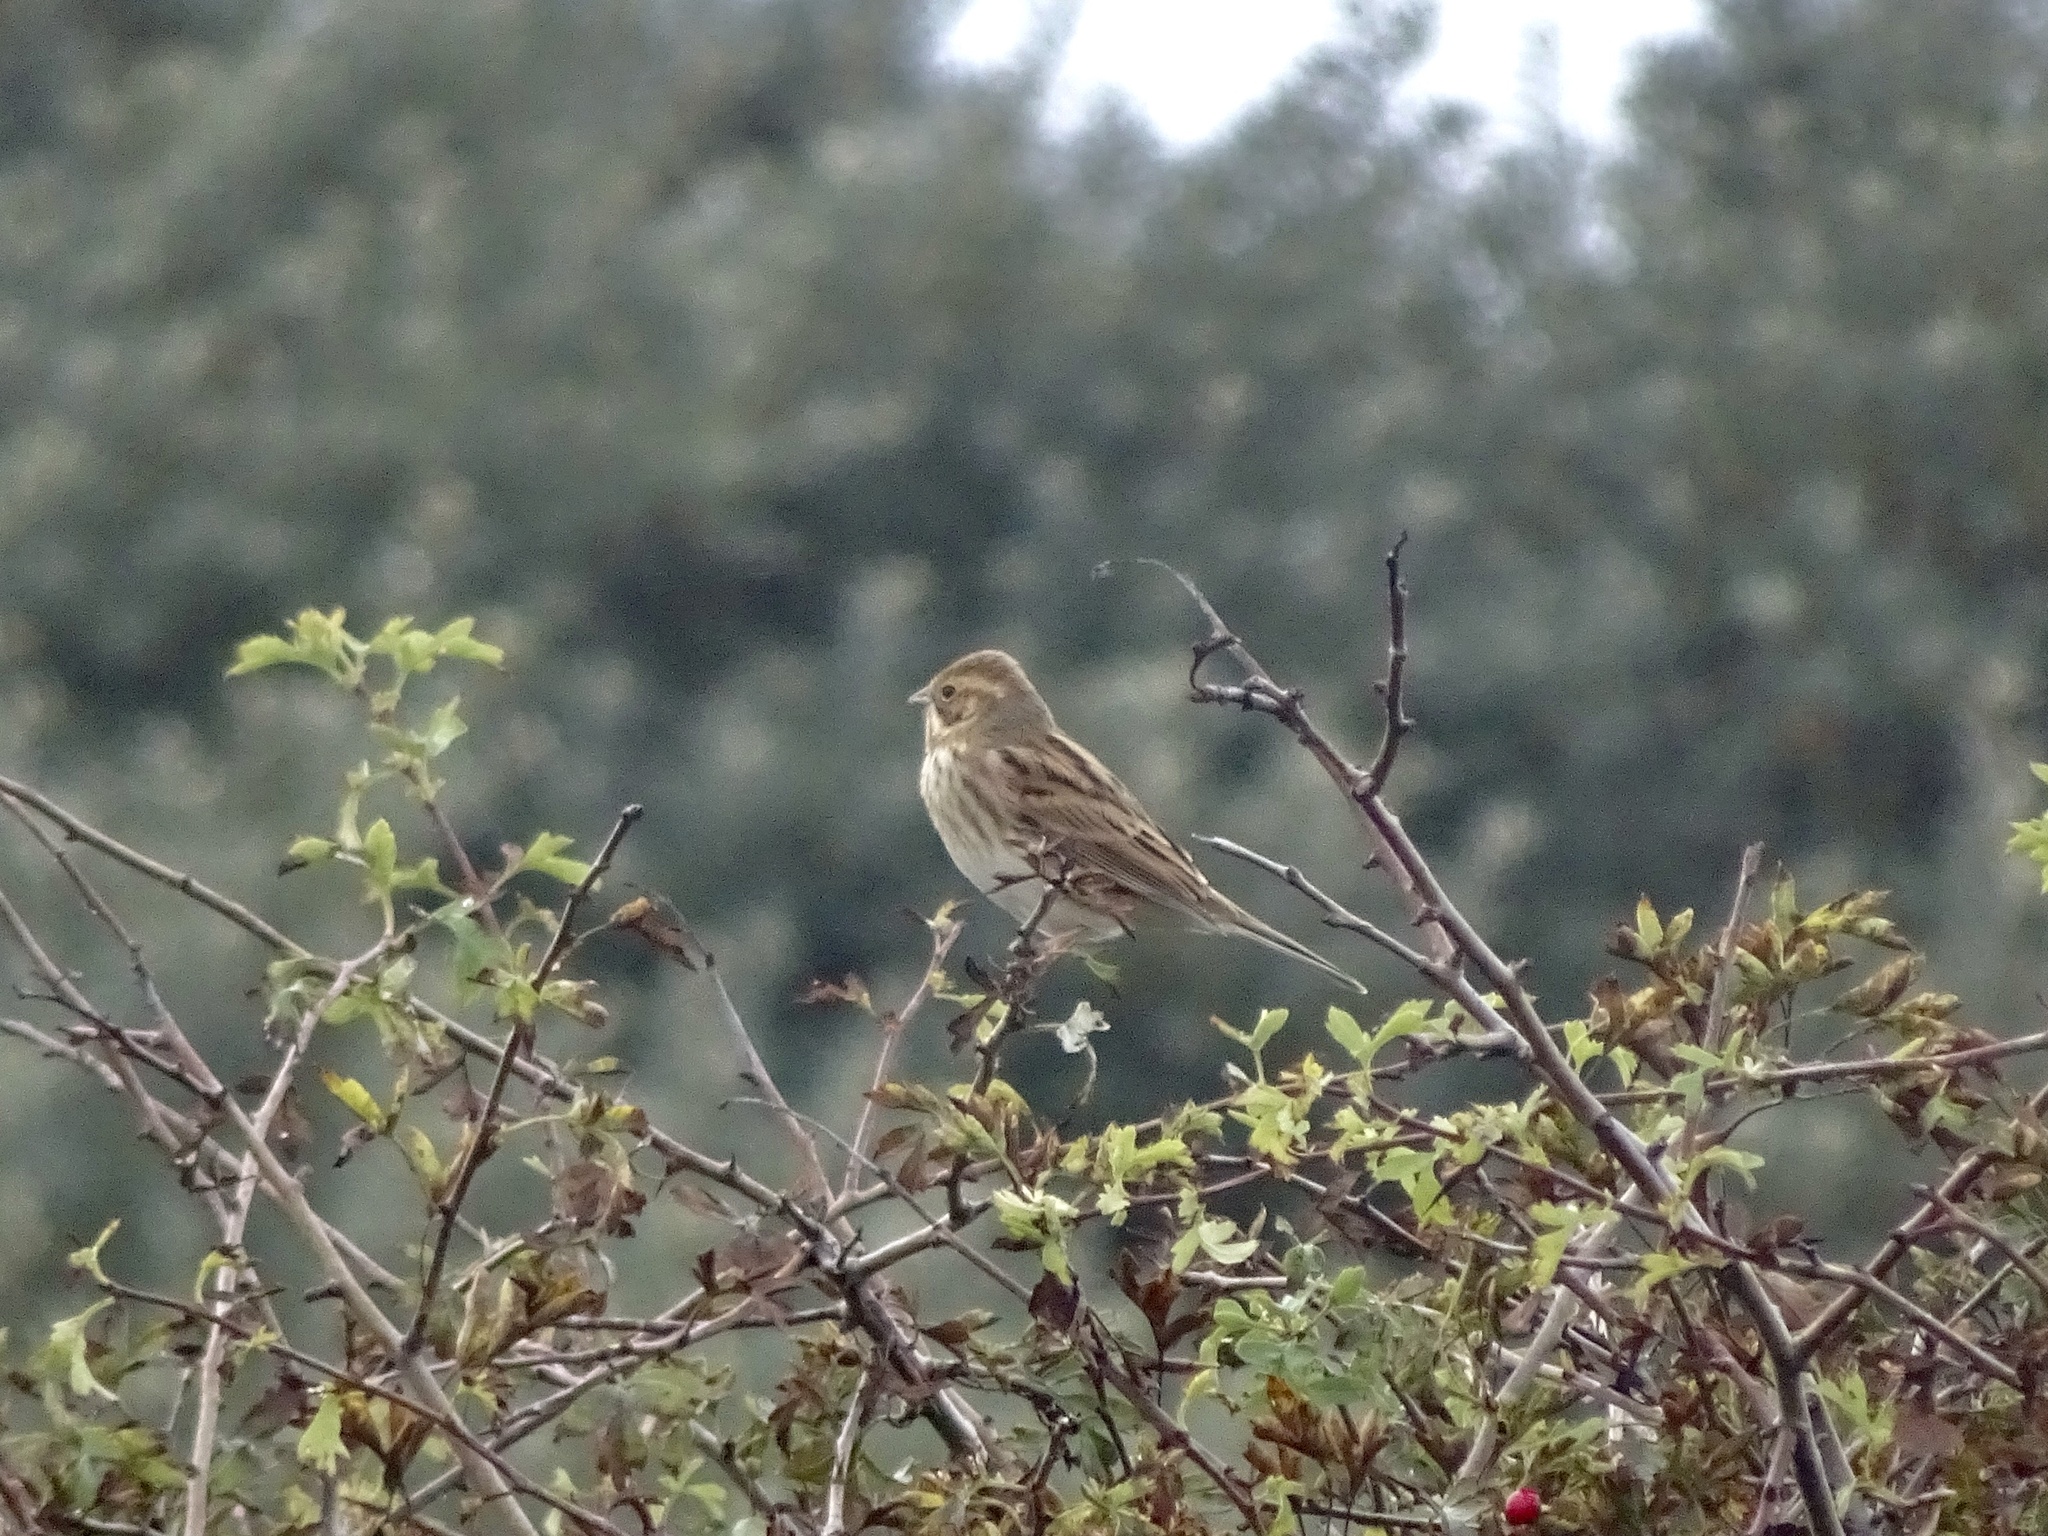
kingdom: Animalia
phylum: Chordata
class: Aves
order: Passeriformes
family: Emberizidae
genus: Emberiza
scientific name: Emberiza schoeniclus
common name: Reed bunting
